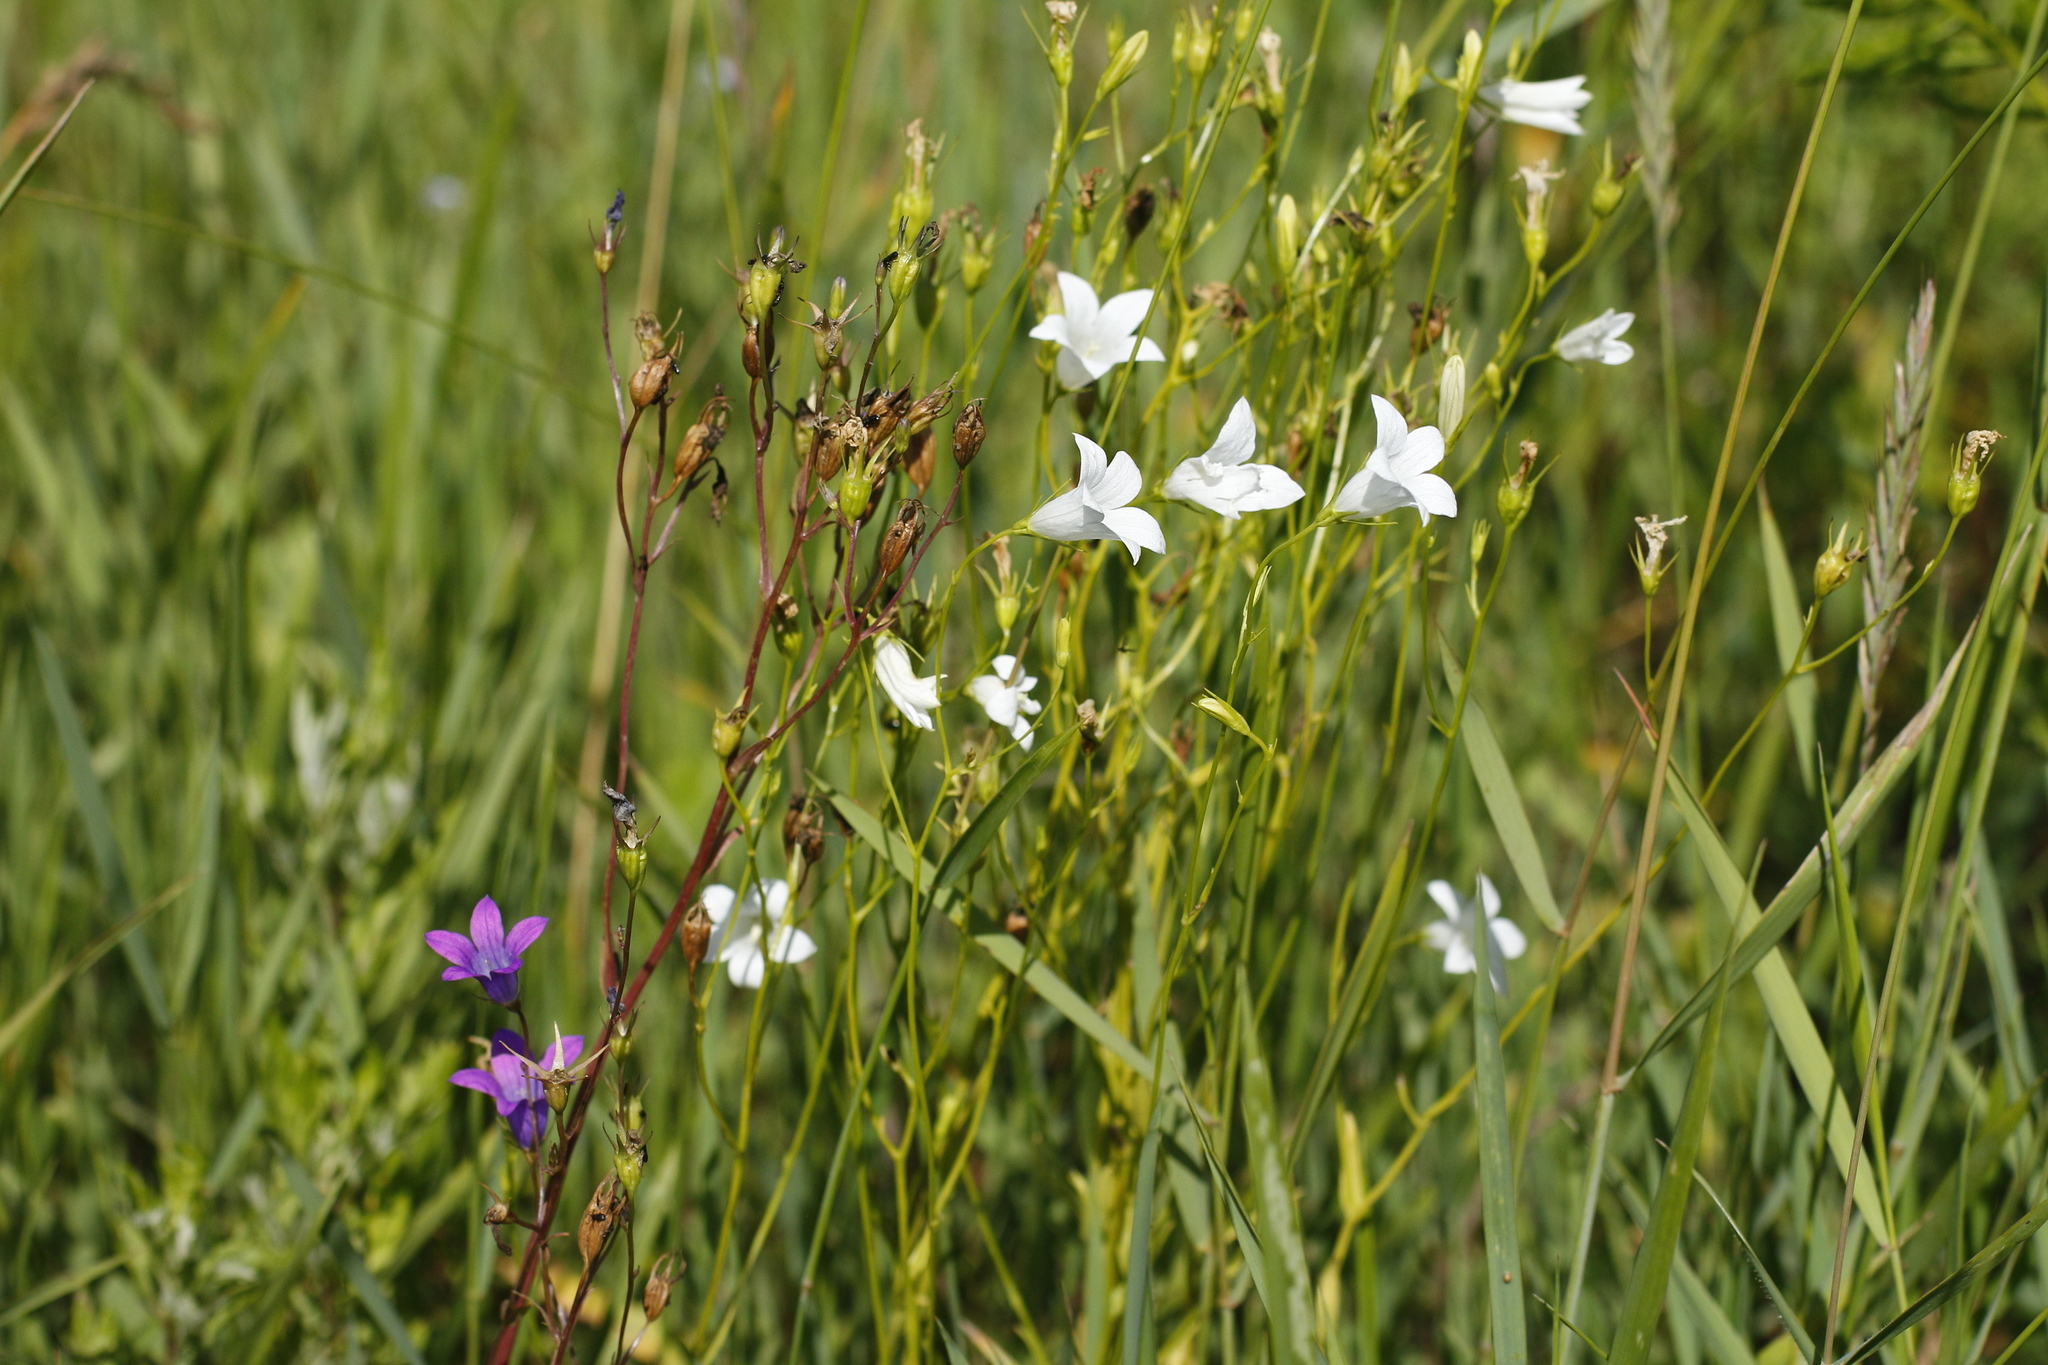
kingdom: Plantae
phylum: Tracheophyta
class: Magnoliopsida
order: Asterales
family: Campanulaceae
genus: Campanula
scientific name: Campanula patula
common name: Spreading bellflower
